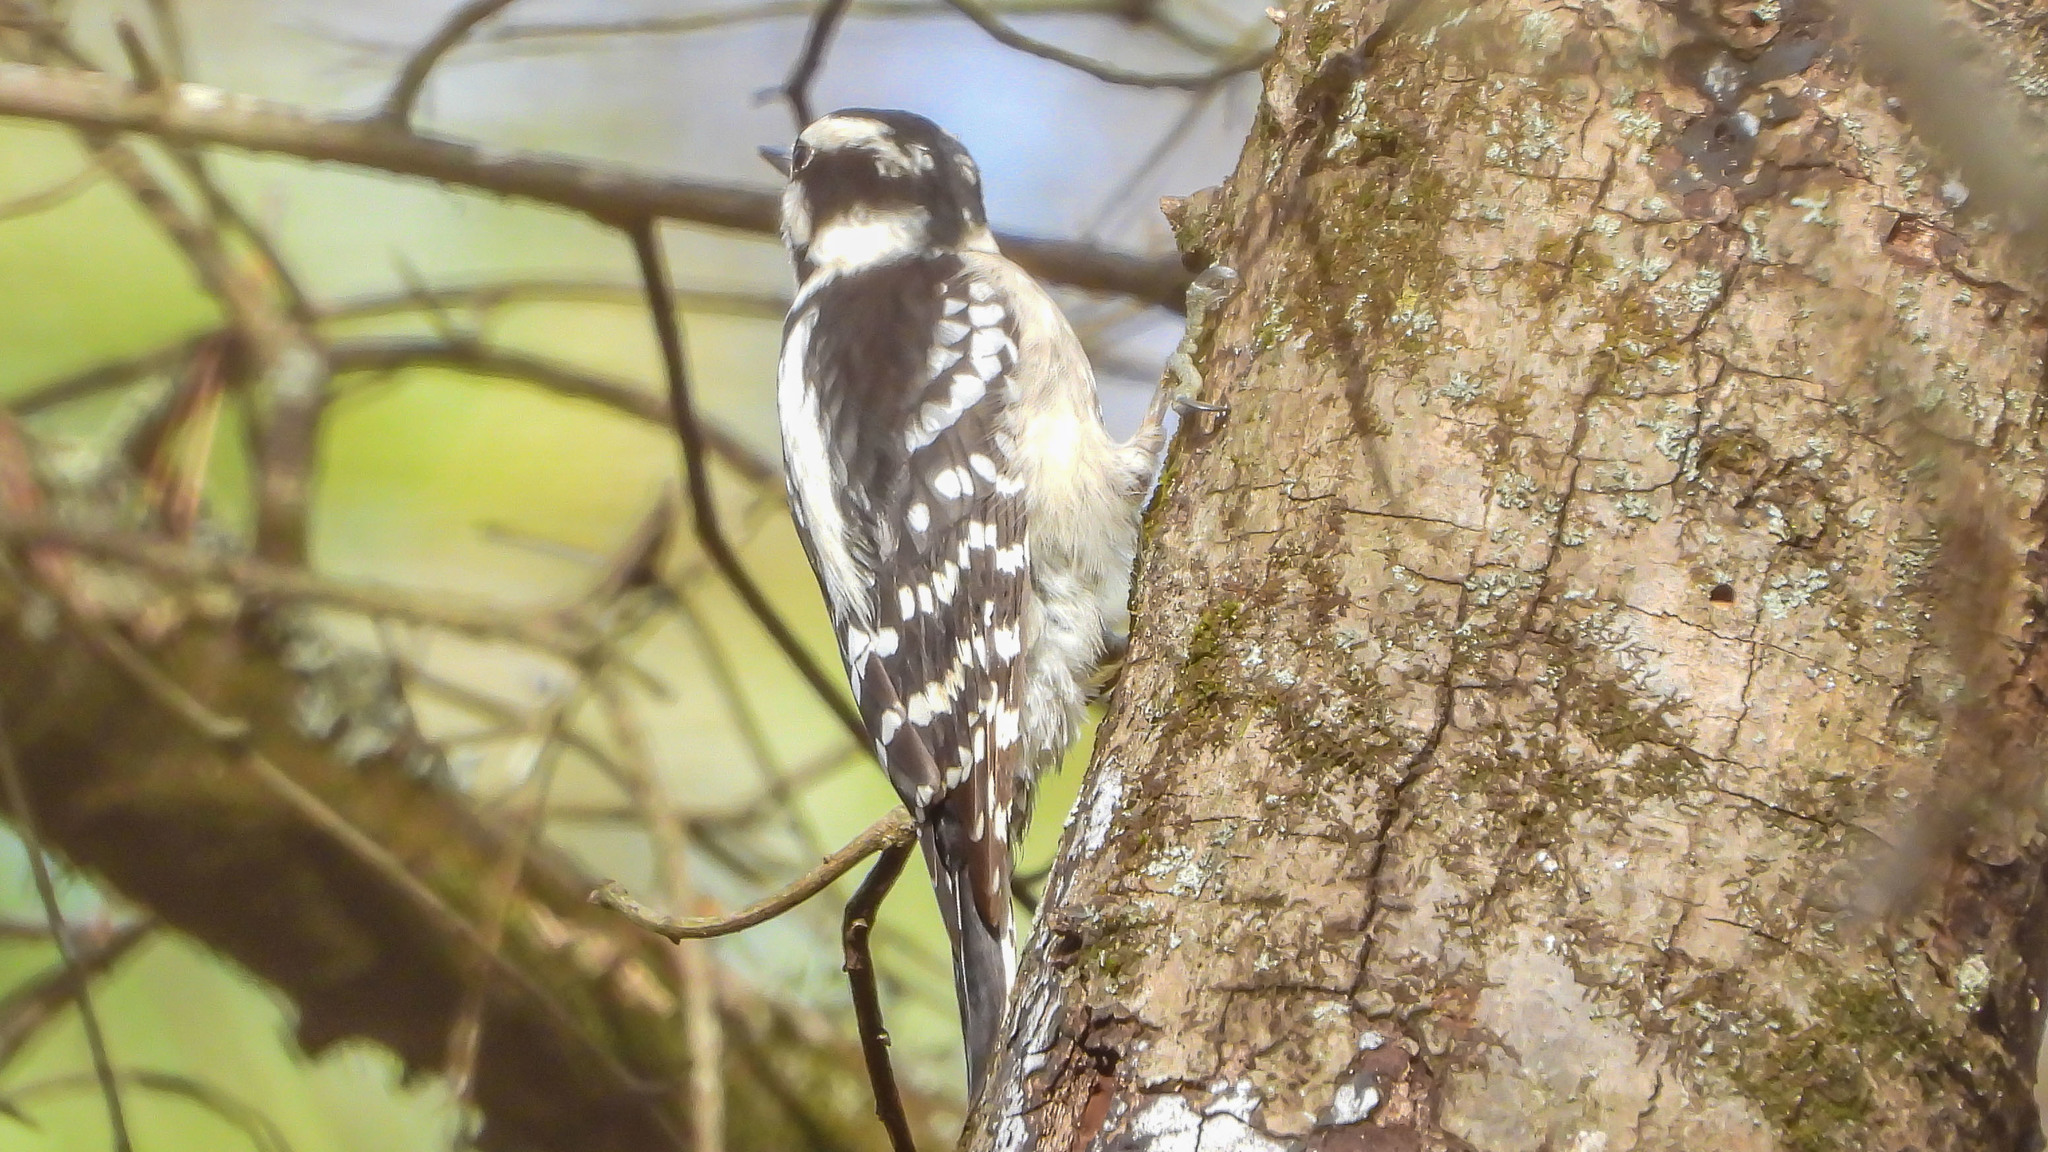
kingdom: Animalia
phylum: Chordata
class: Aves
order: Piciformes
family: Picidae
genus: Dryobates
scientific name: Dryobates pubescens
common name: Downy woodpecker
